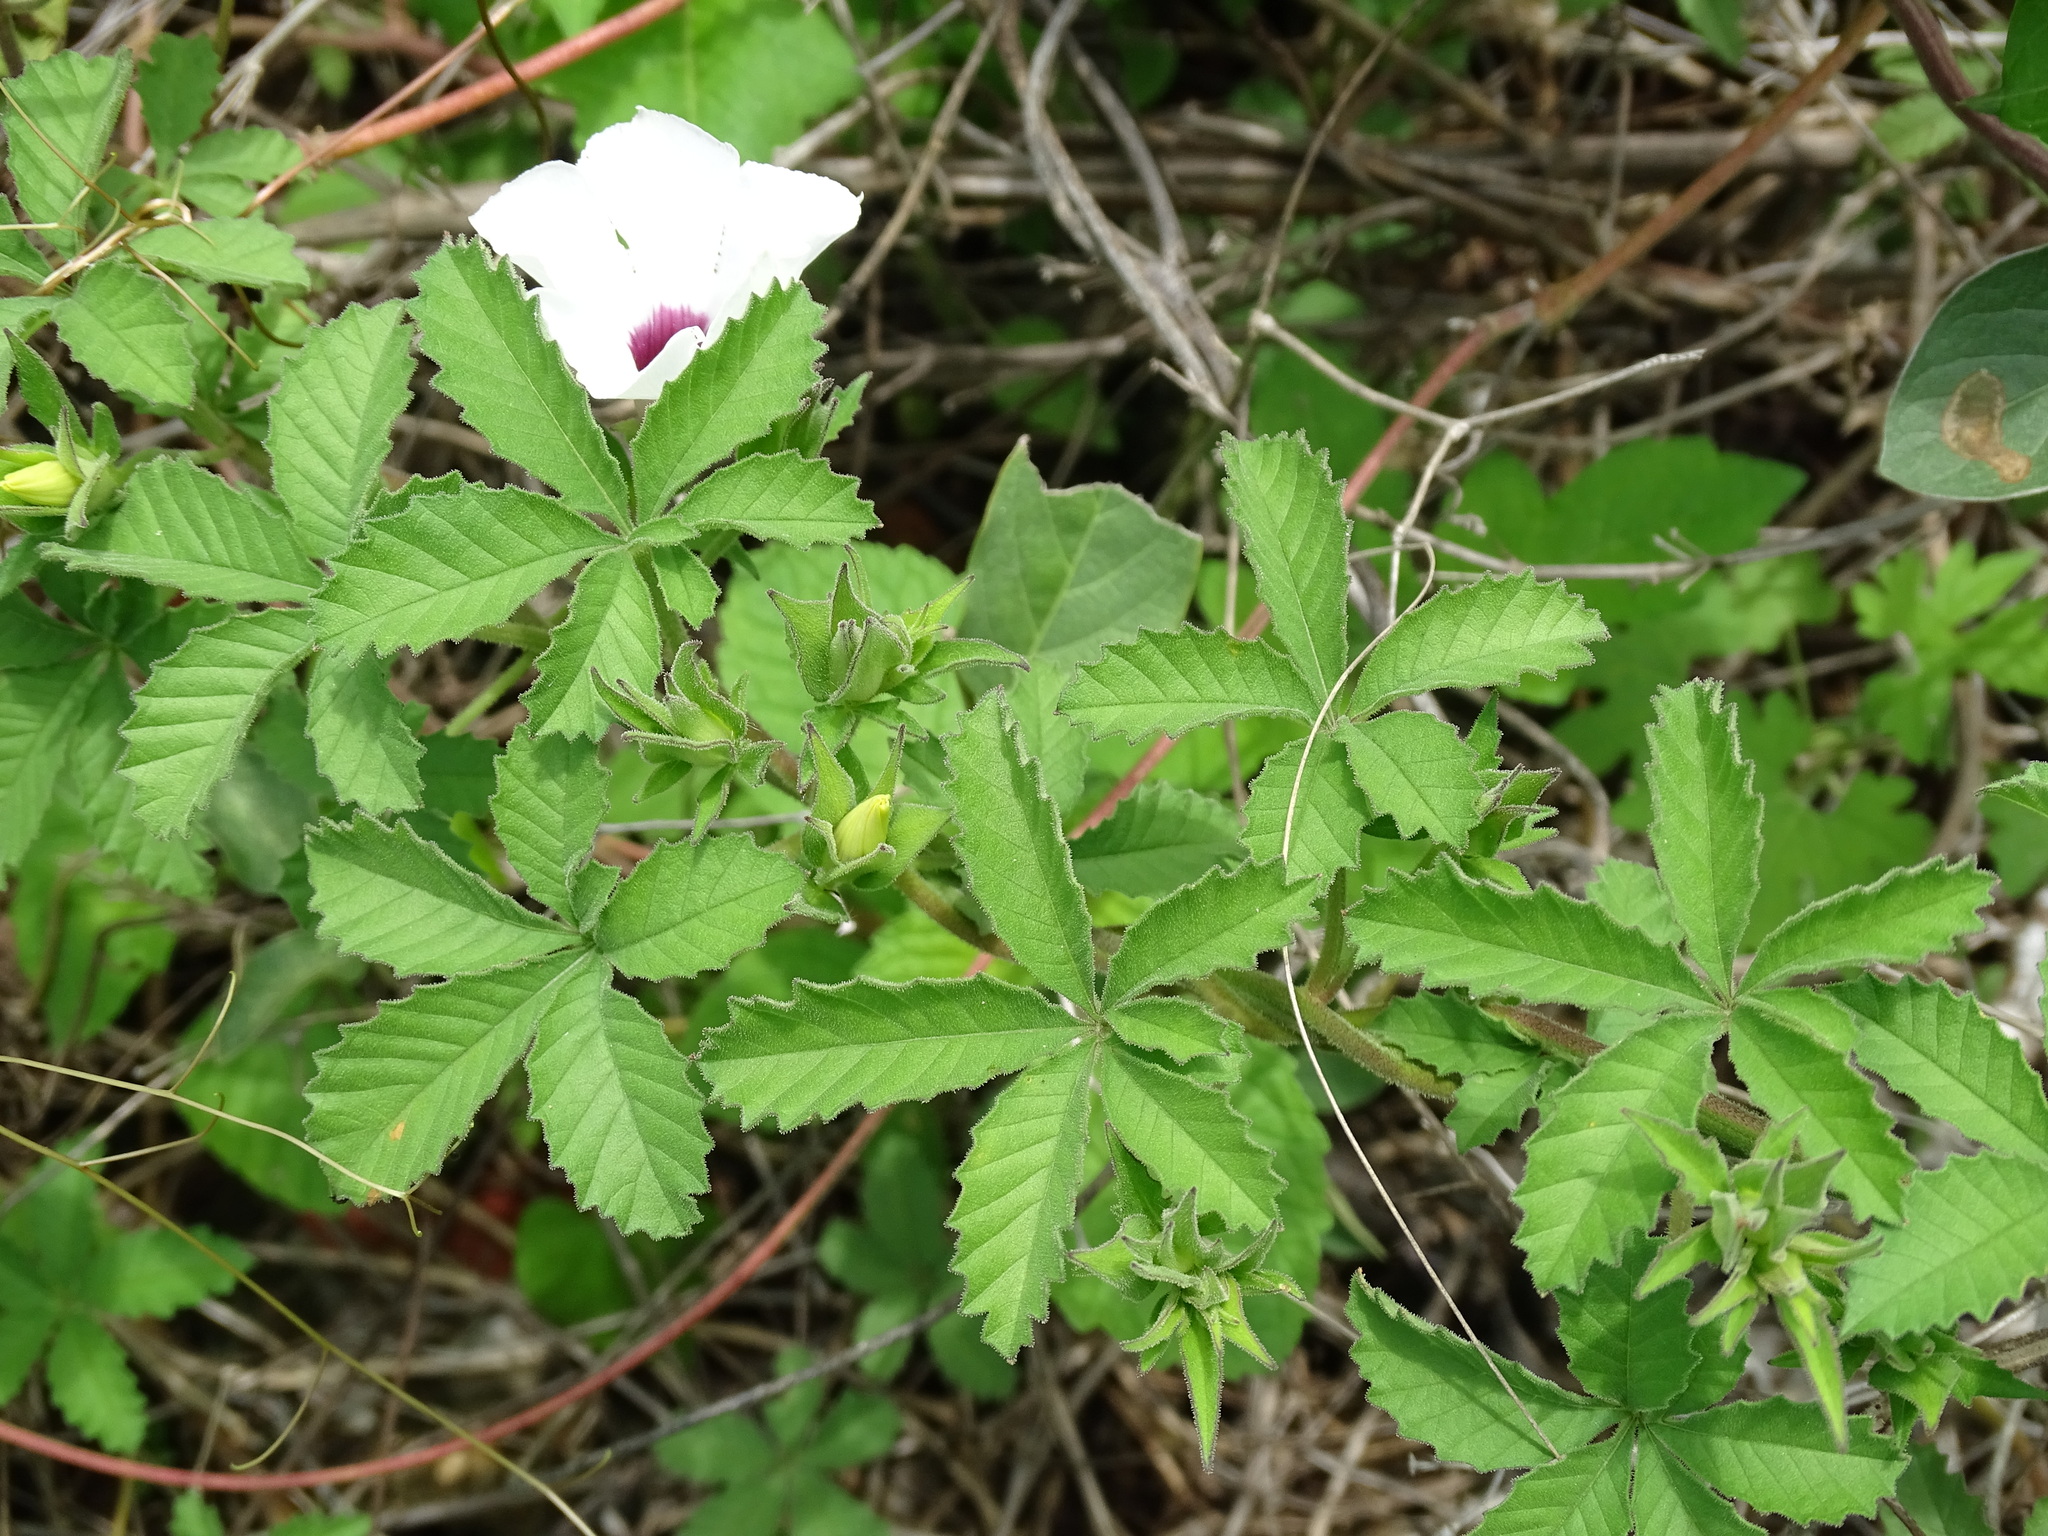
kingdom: Plantae
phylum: Tracheophyta
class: Magnoliopsida
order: Solanales
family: Convolvulaceae
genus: Distimake
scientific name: Distimake lobulibracteatus
